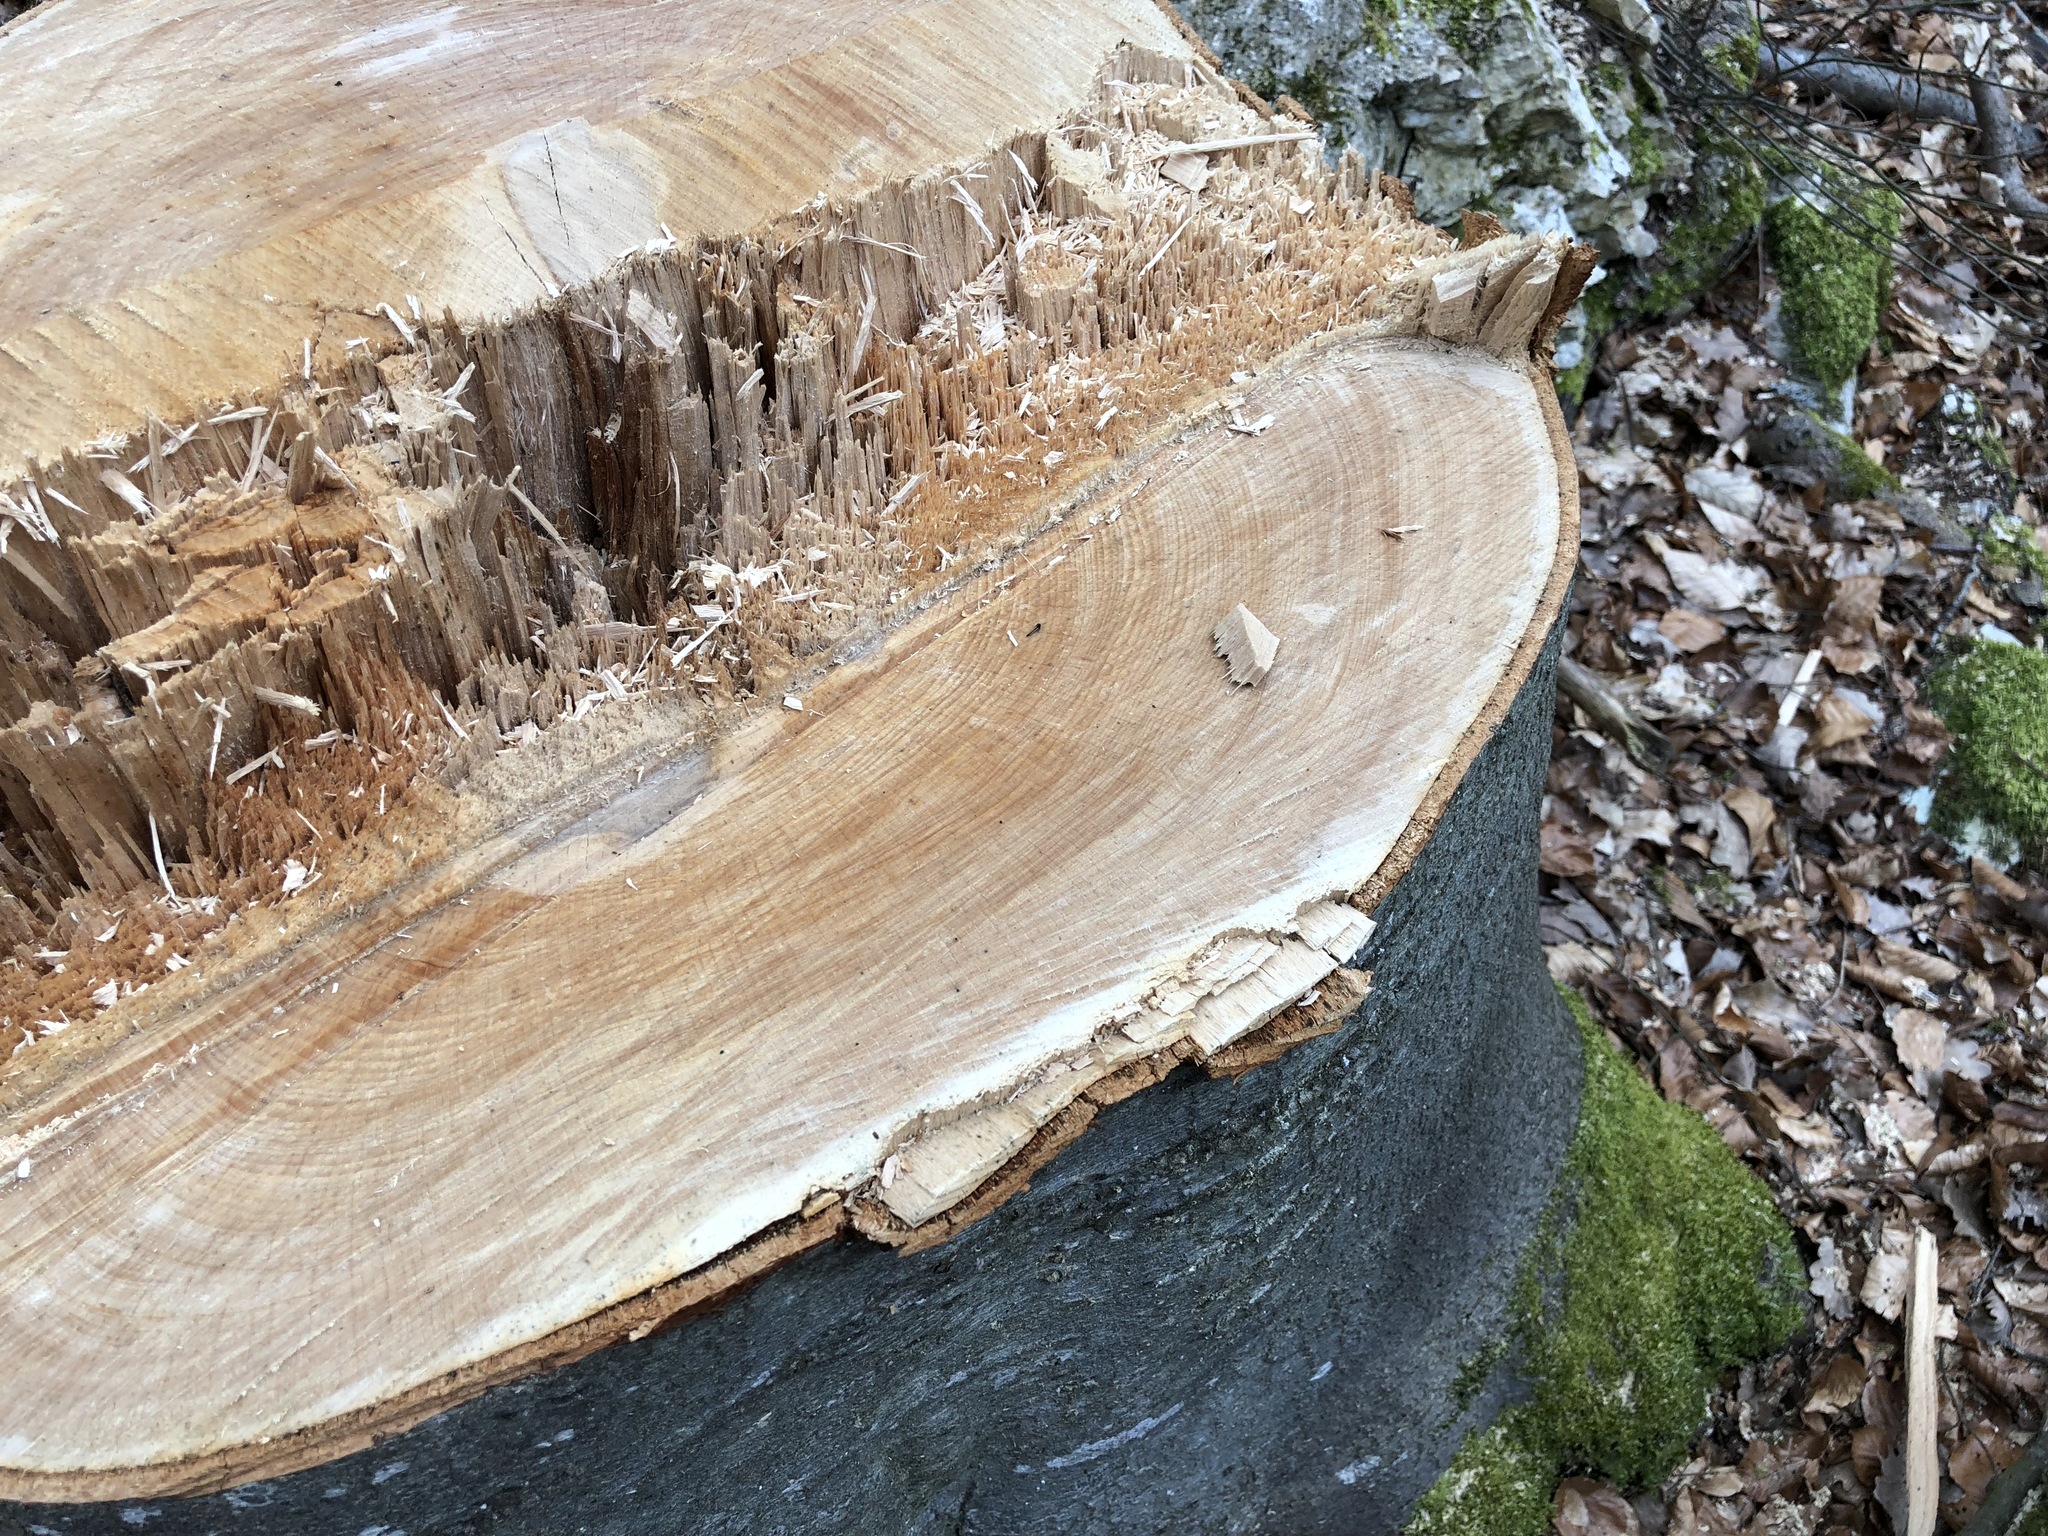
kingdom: Plantae
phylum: Tracheophyta
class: Magnoliopsida
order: Fagales
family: Fagaceae
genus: Fagus
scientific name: Fagus sylvatica
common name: Beech
